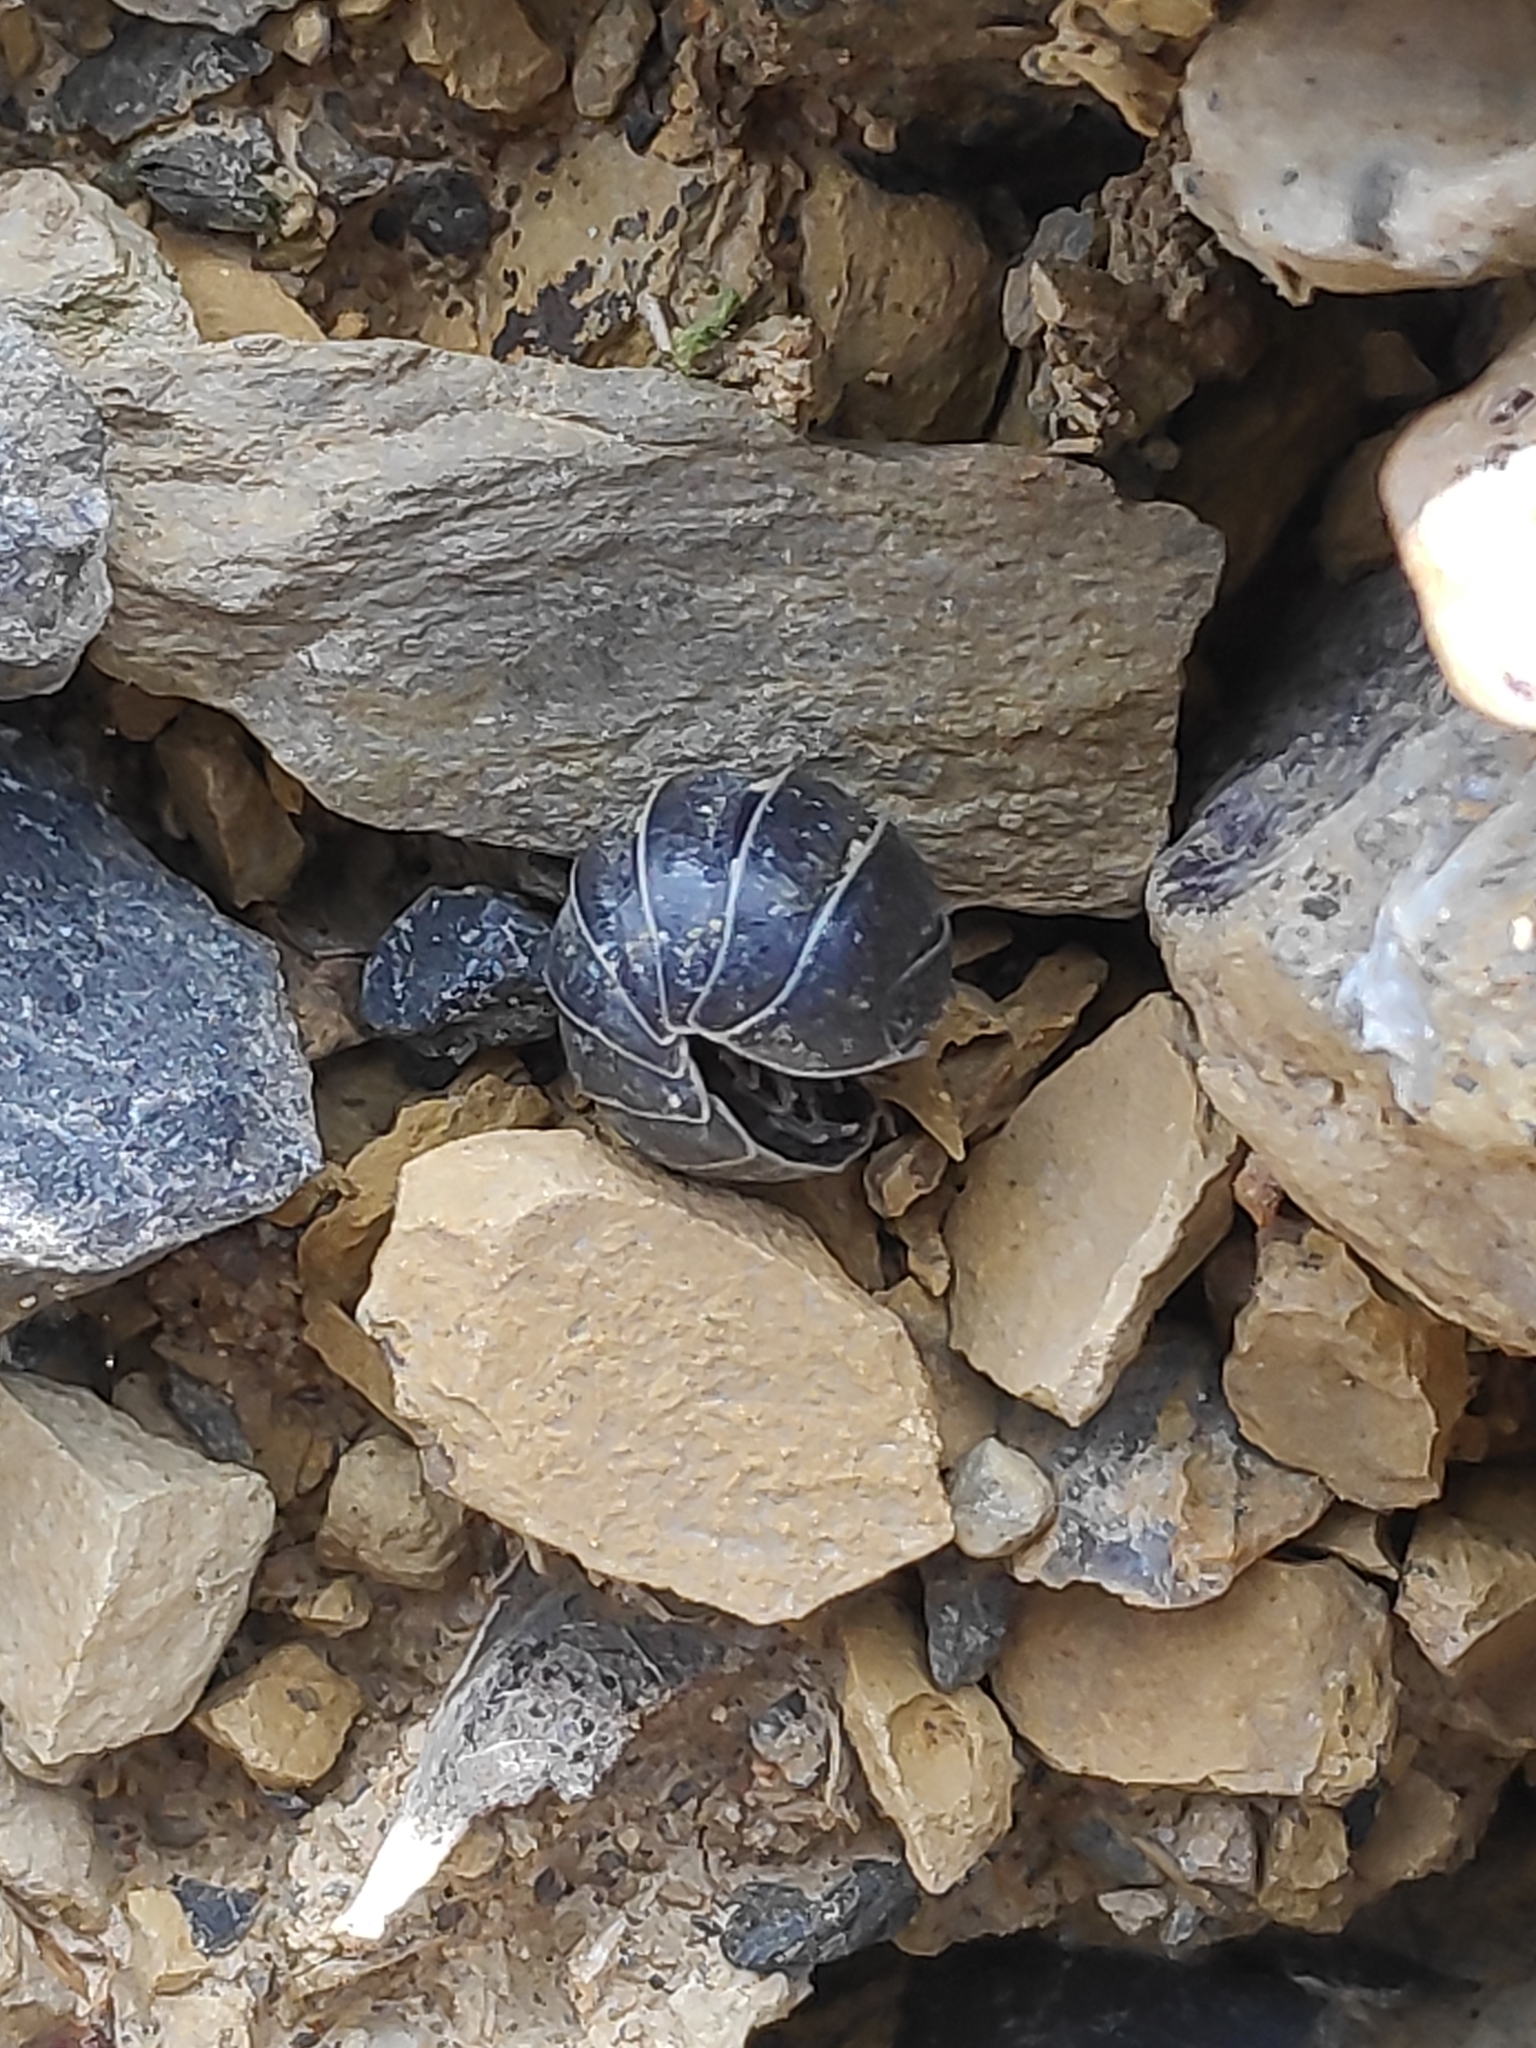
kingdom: Animalia
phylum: Arthropoda
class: Malacostraca
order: Isopoda
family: Armadillidiidae
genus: Armadillidium
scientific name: Armadillidium vulgare
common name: Common pill woodlouse
